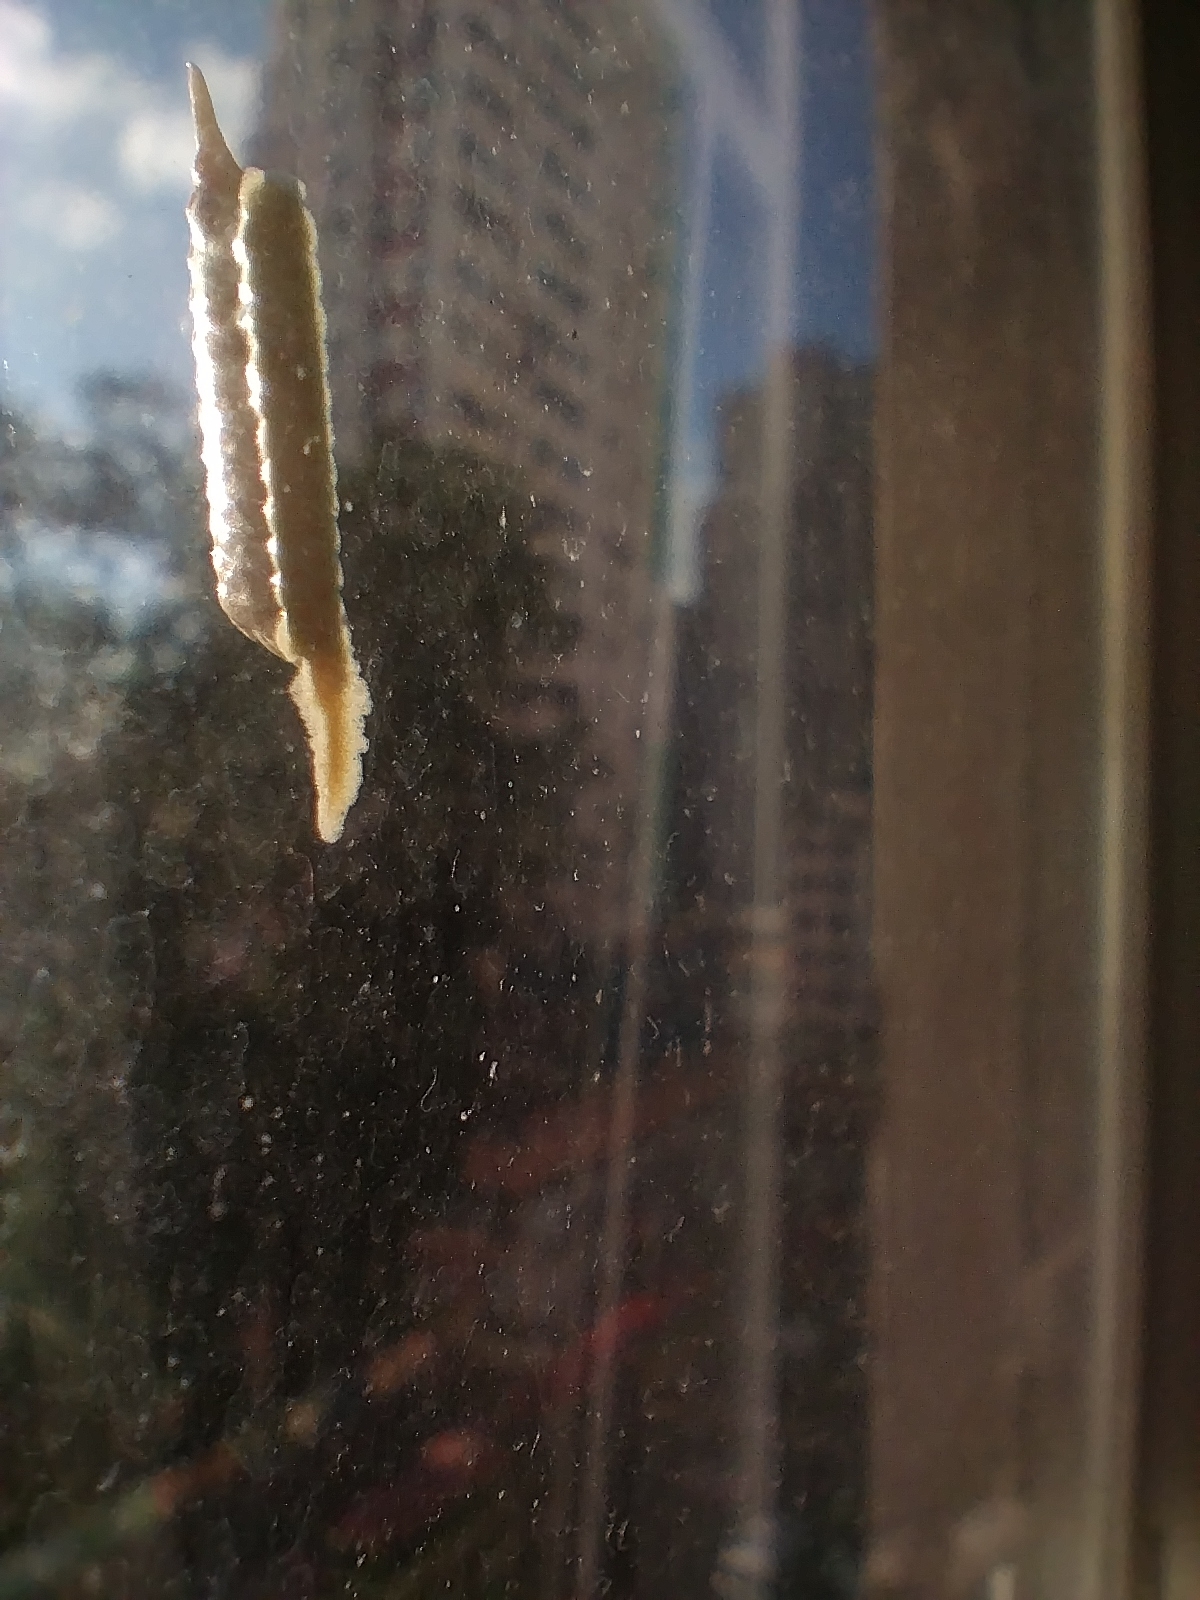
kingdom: Animalia
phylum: Arthropoda
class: Insecta
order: Mantodea
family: Nanomantidae
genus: Tropidomantis
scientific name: Tropidomantis gressitti
